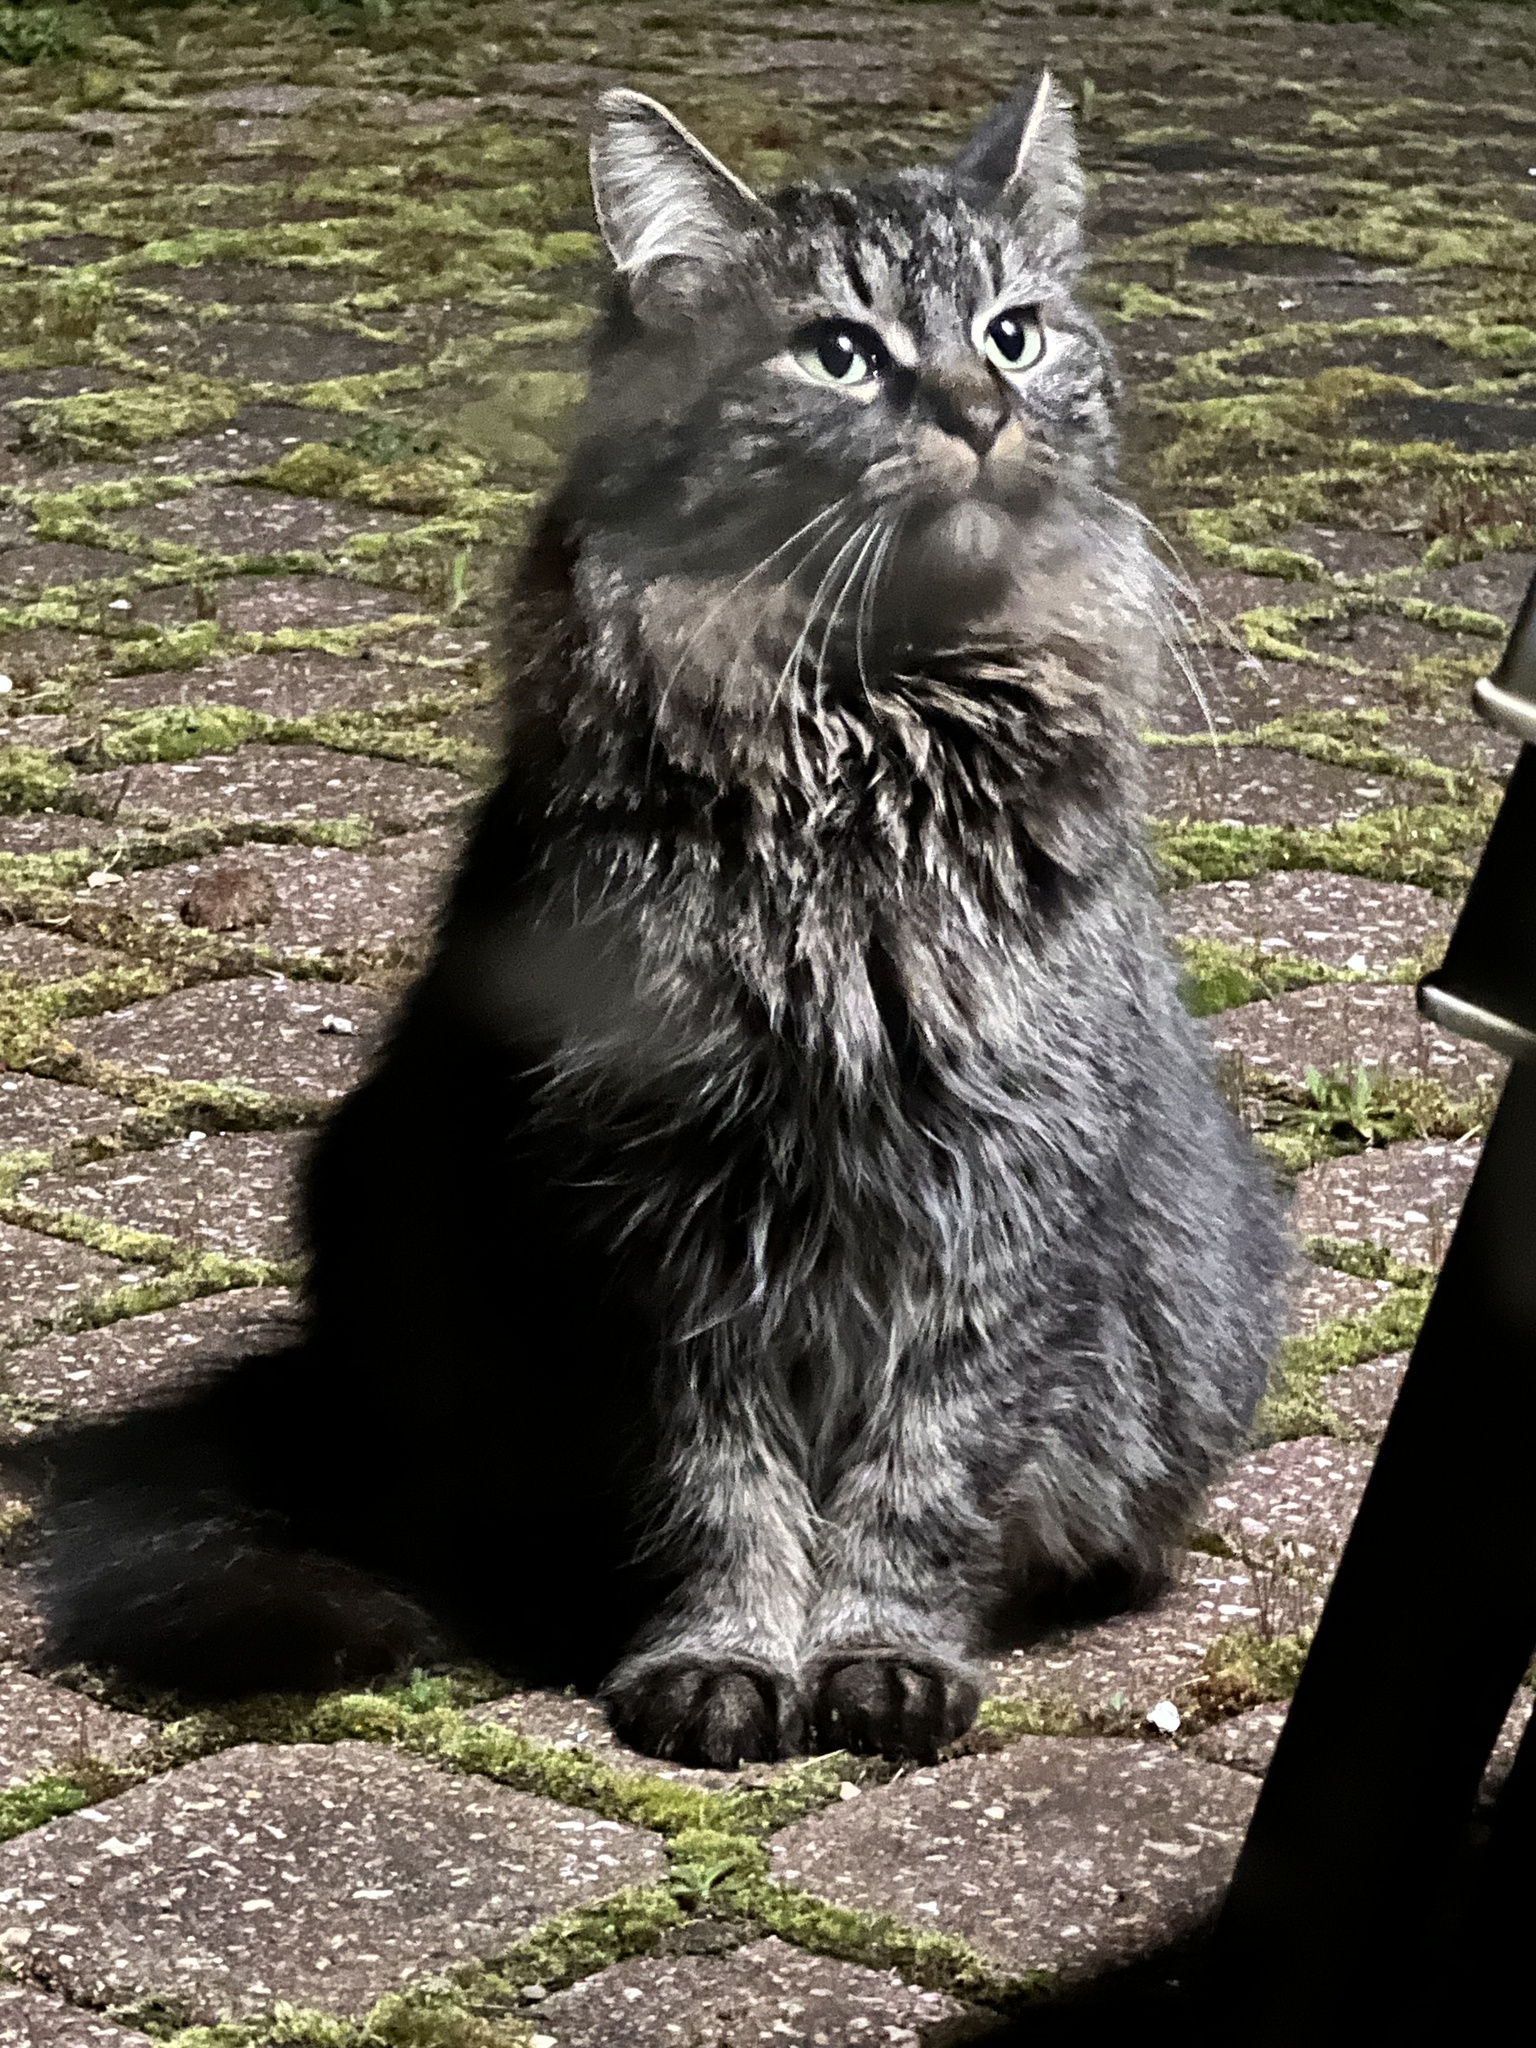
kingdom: Animalia
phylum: Chordata
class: Mammalia
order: Carnivora
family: Felidae
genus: Felis
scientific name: Felis catus
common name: Domestic cat
